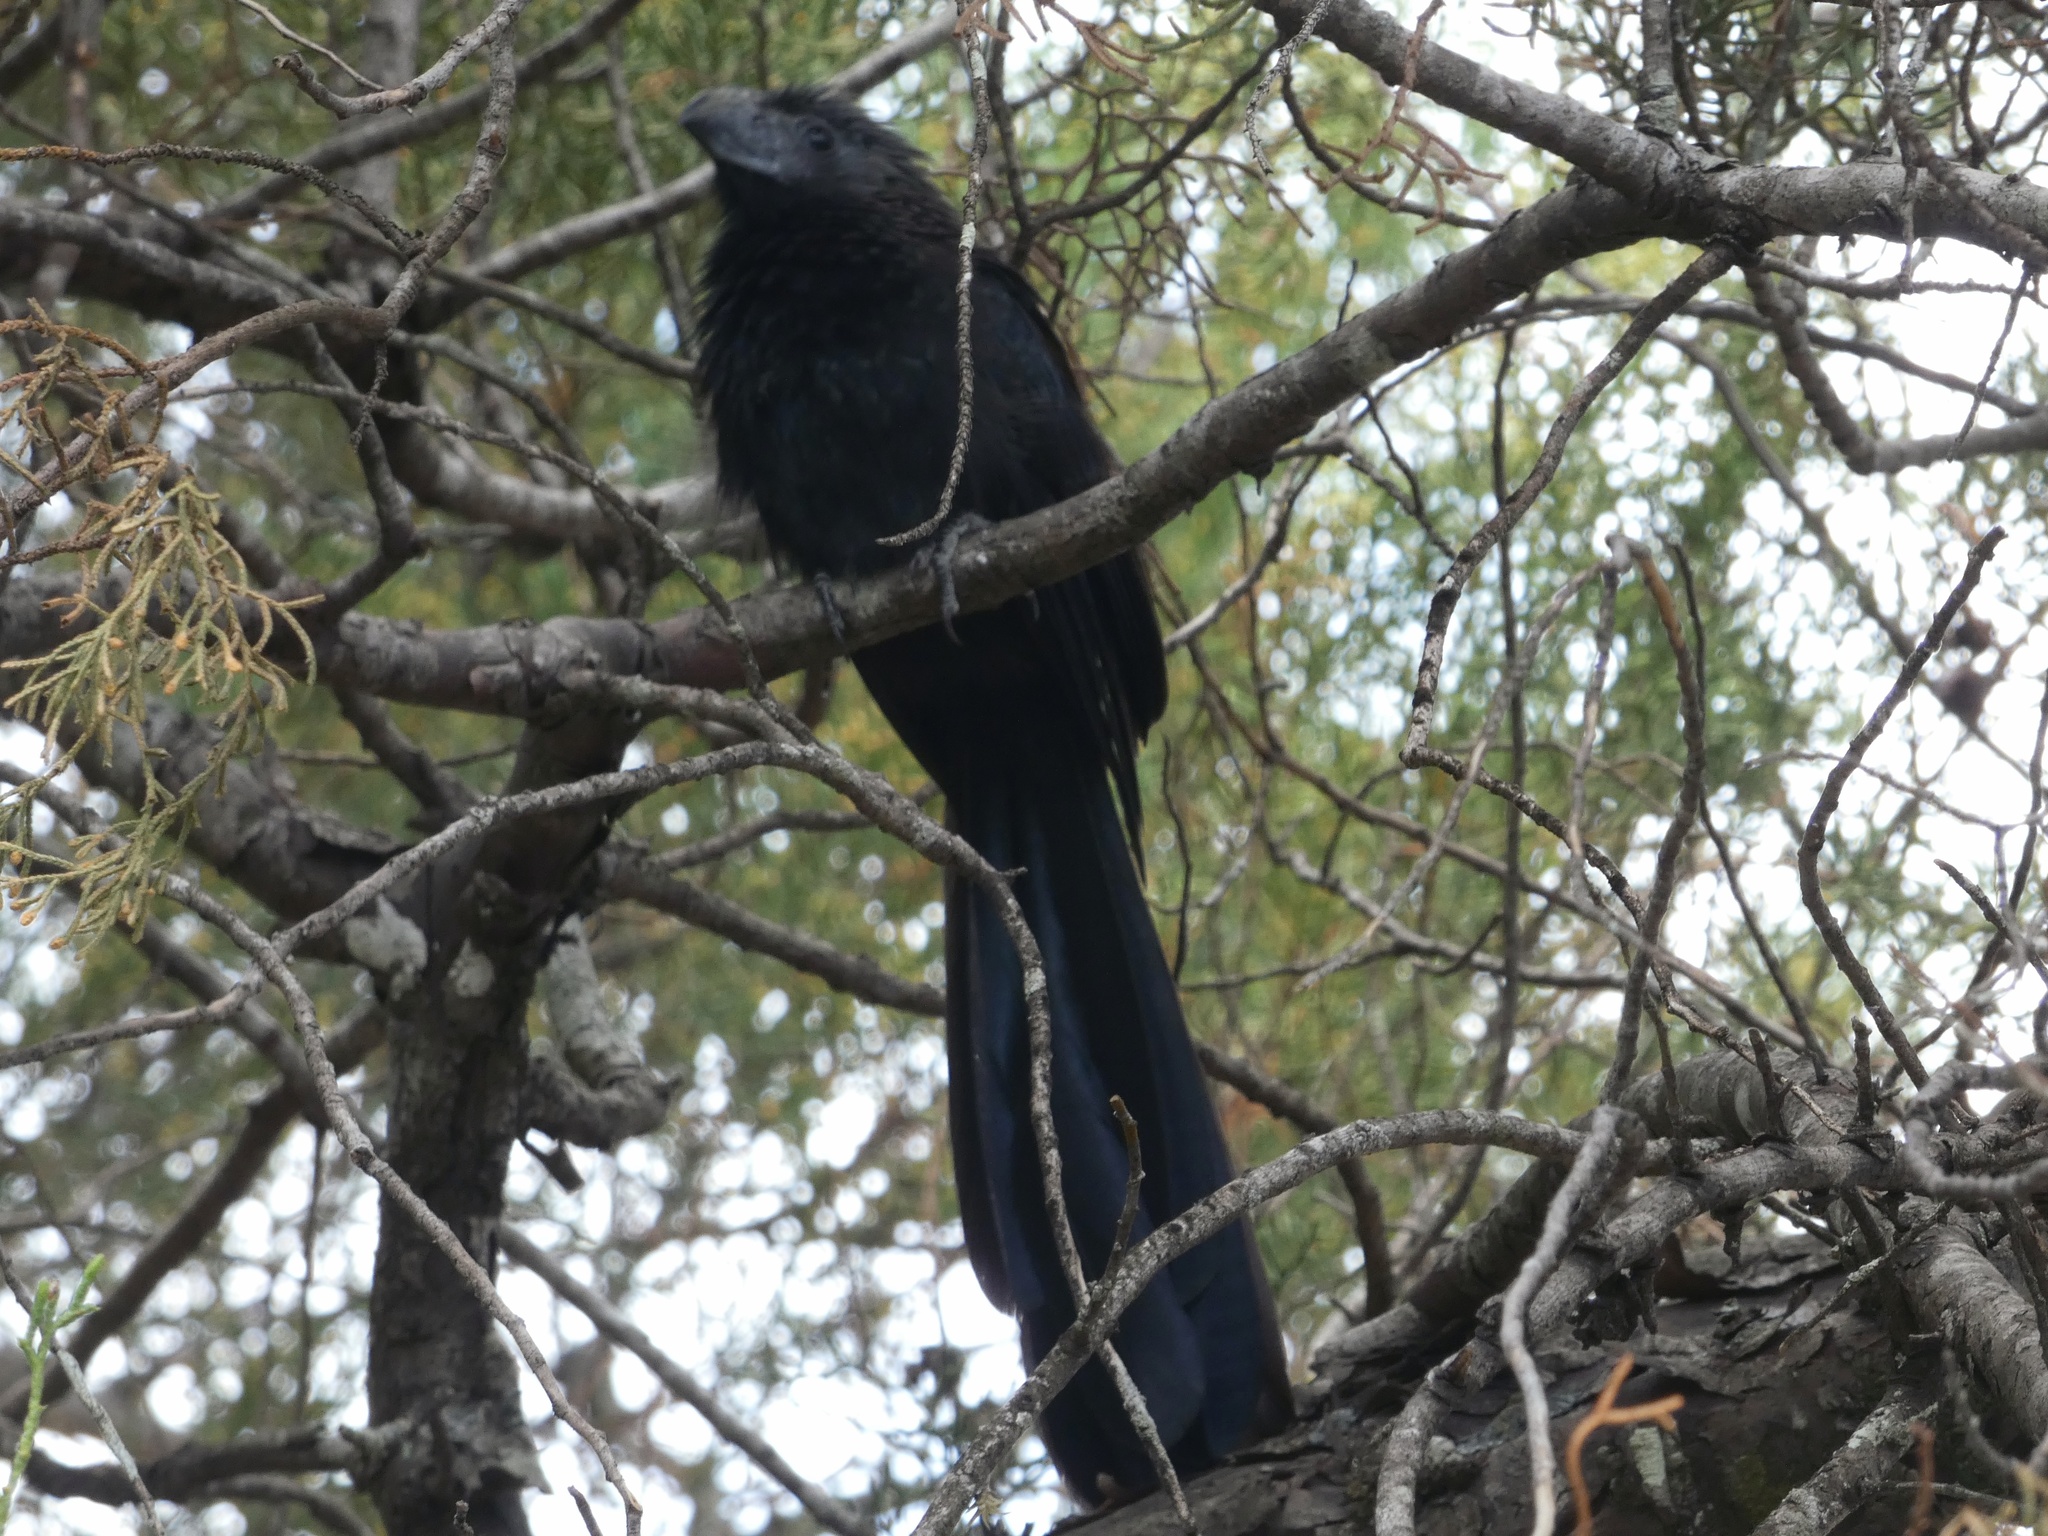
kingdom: Animalia
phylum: Chordata
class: Aves
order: Cuculiformes
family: Cuculidae
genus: Crotophaga
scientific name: Crotophaga sulcirostris
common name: Groove-billed ani
